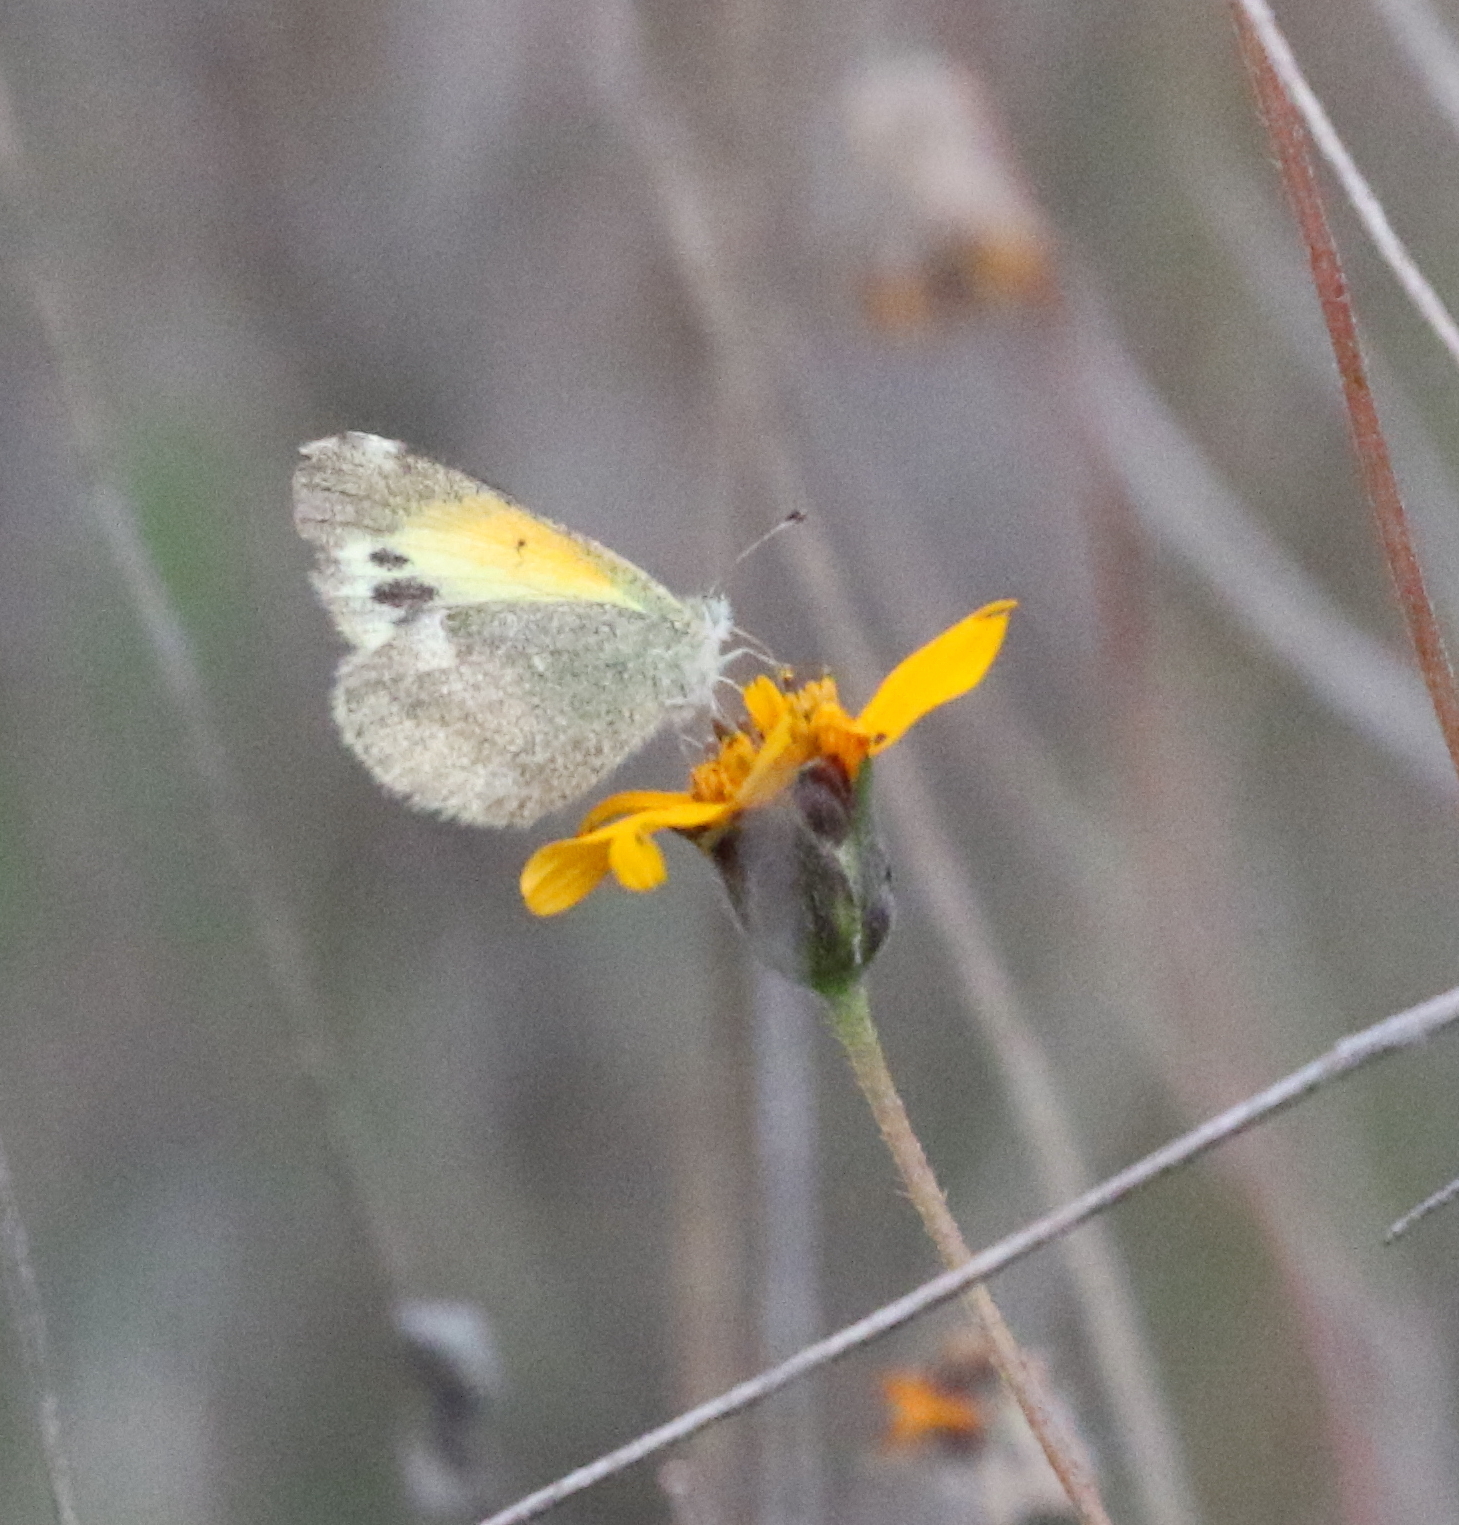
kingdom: Animalia
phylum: Arthropoda
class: Insecta
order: Lepidoptera
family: Pieridae
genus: Nathalis
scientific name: Nathalis iole
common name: Dainty sulphur
